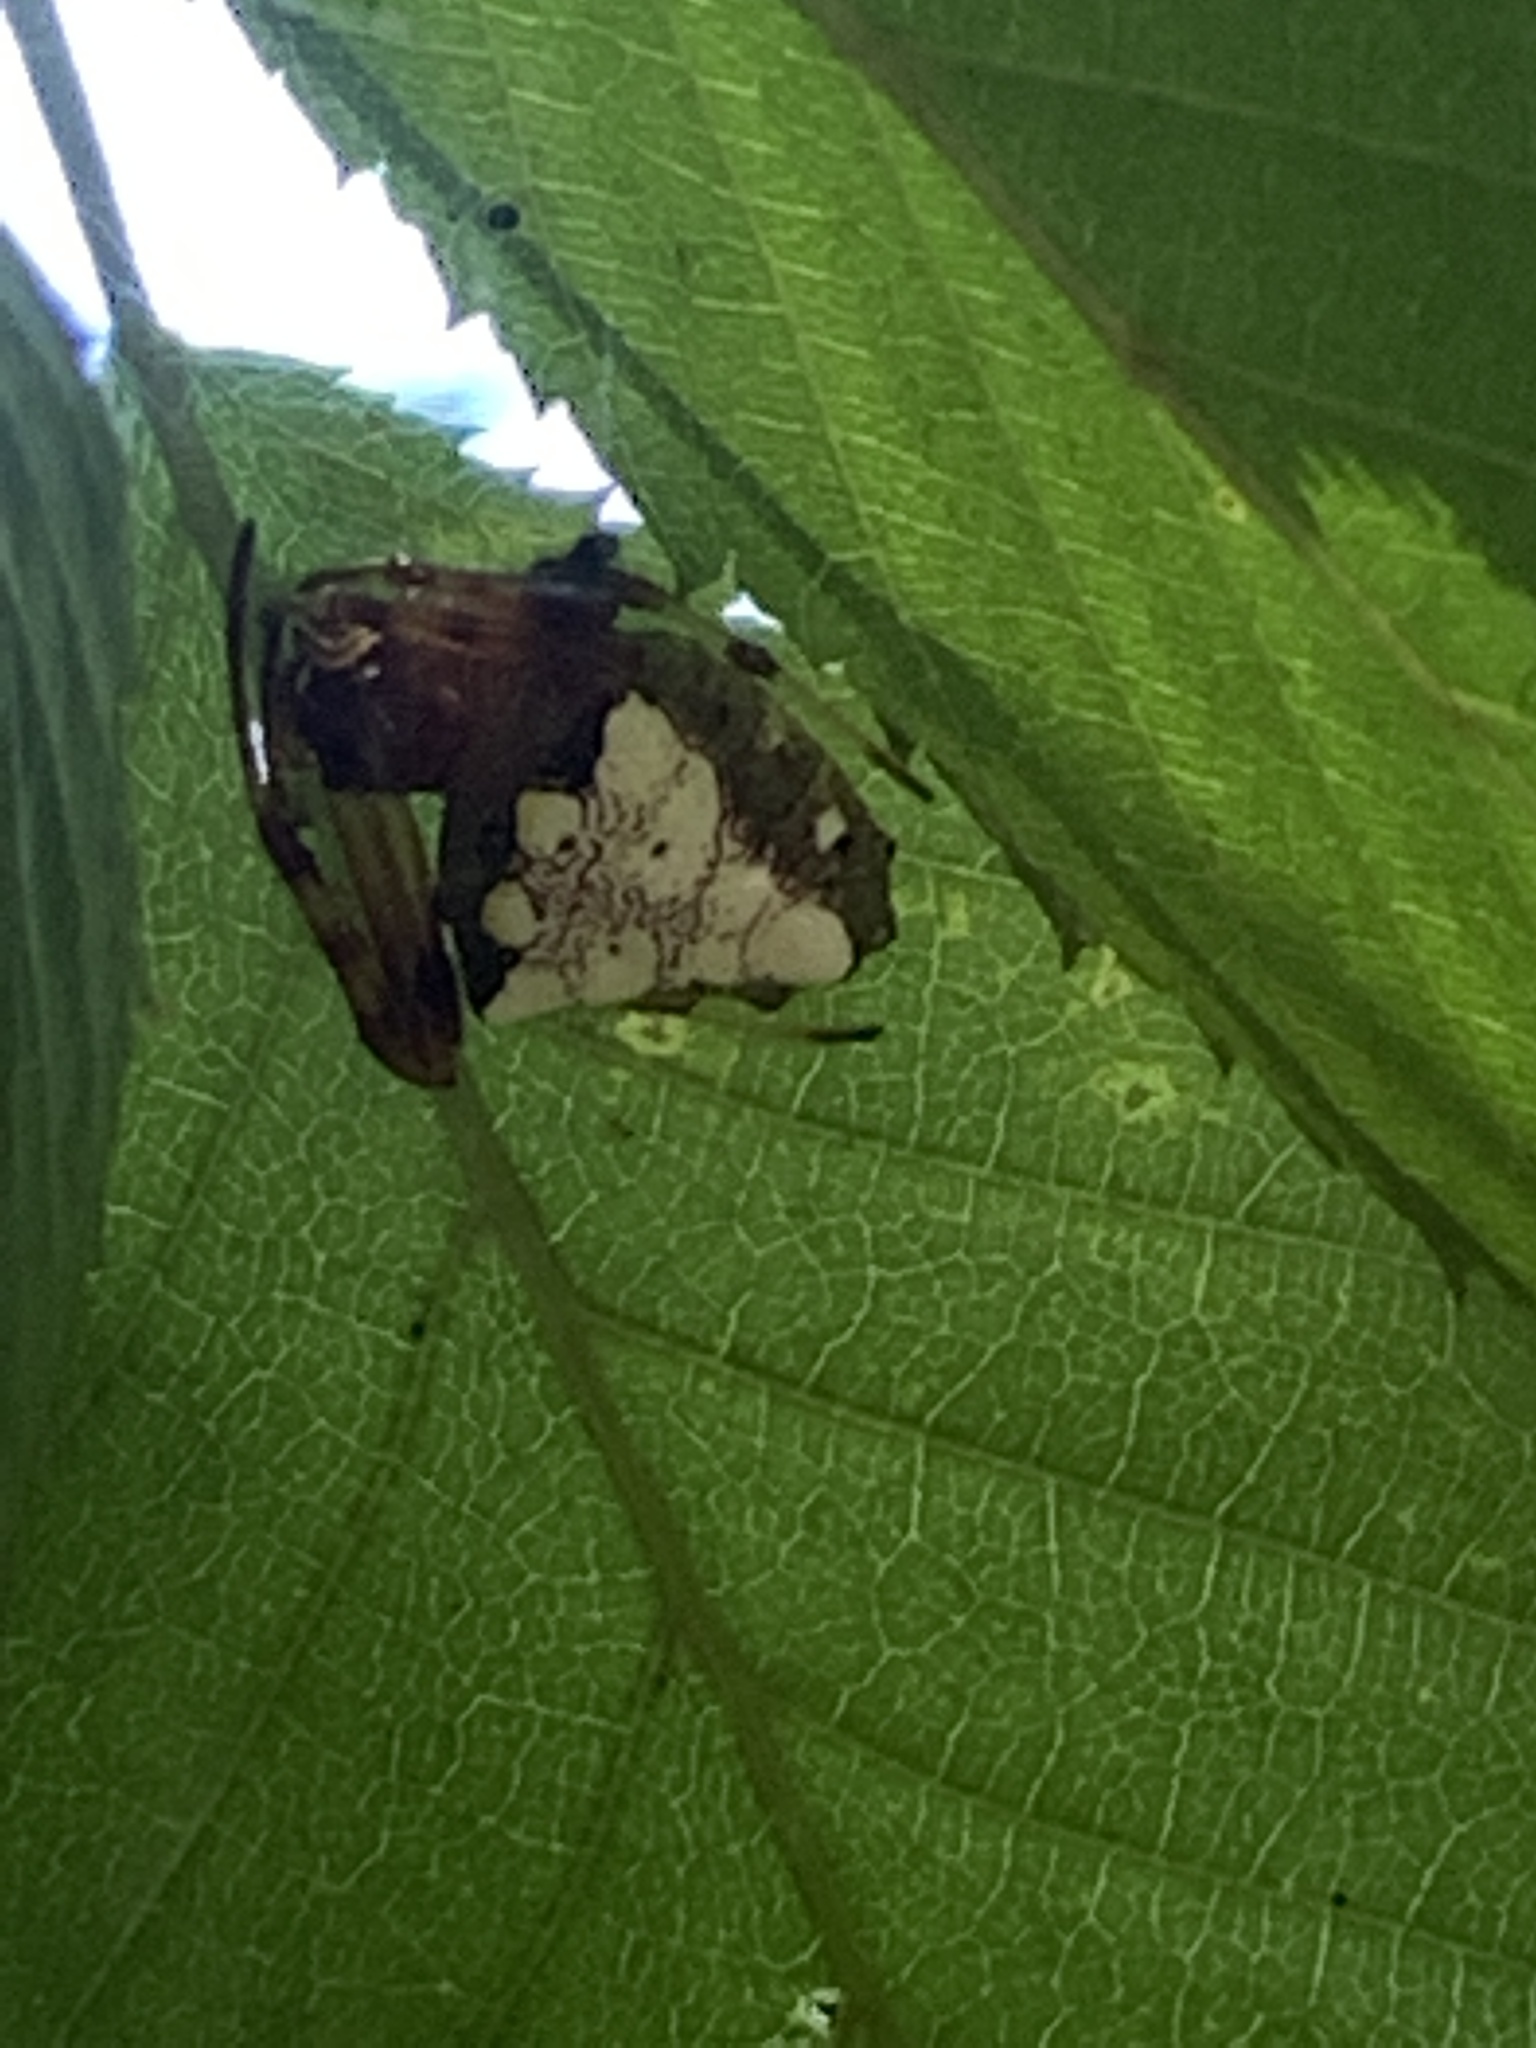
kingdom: Animalia
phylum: Arthropoda
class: Arachnida
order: Araneae
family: Araneidae
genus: Verrucosa
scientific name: Verrucosa arenata
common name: Orb weavers
